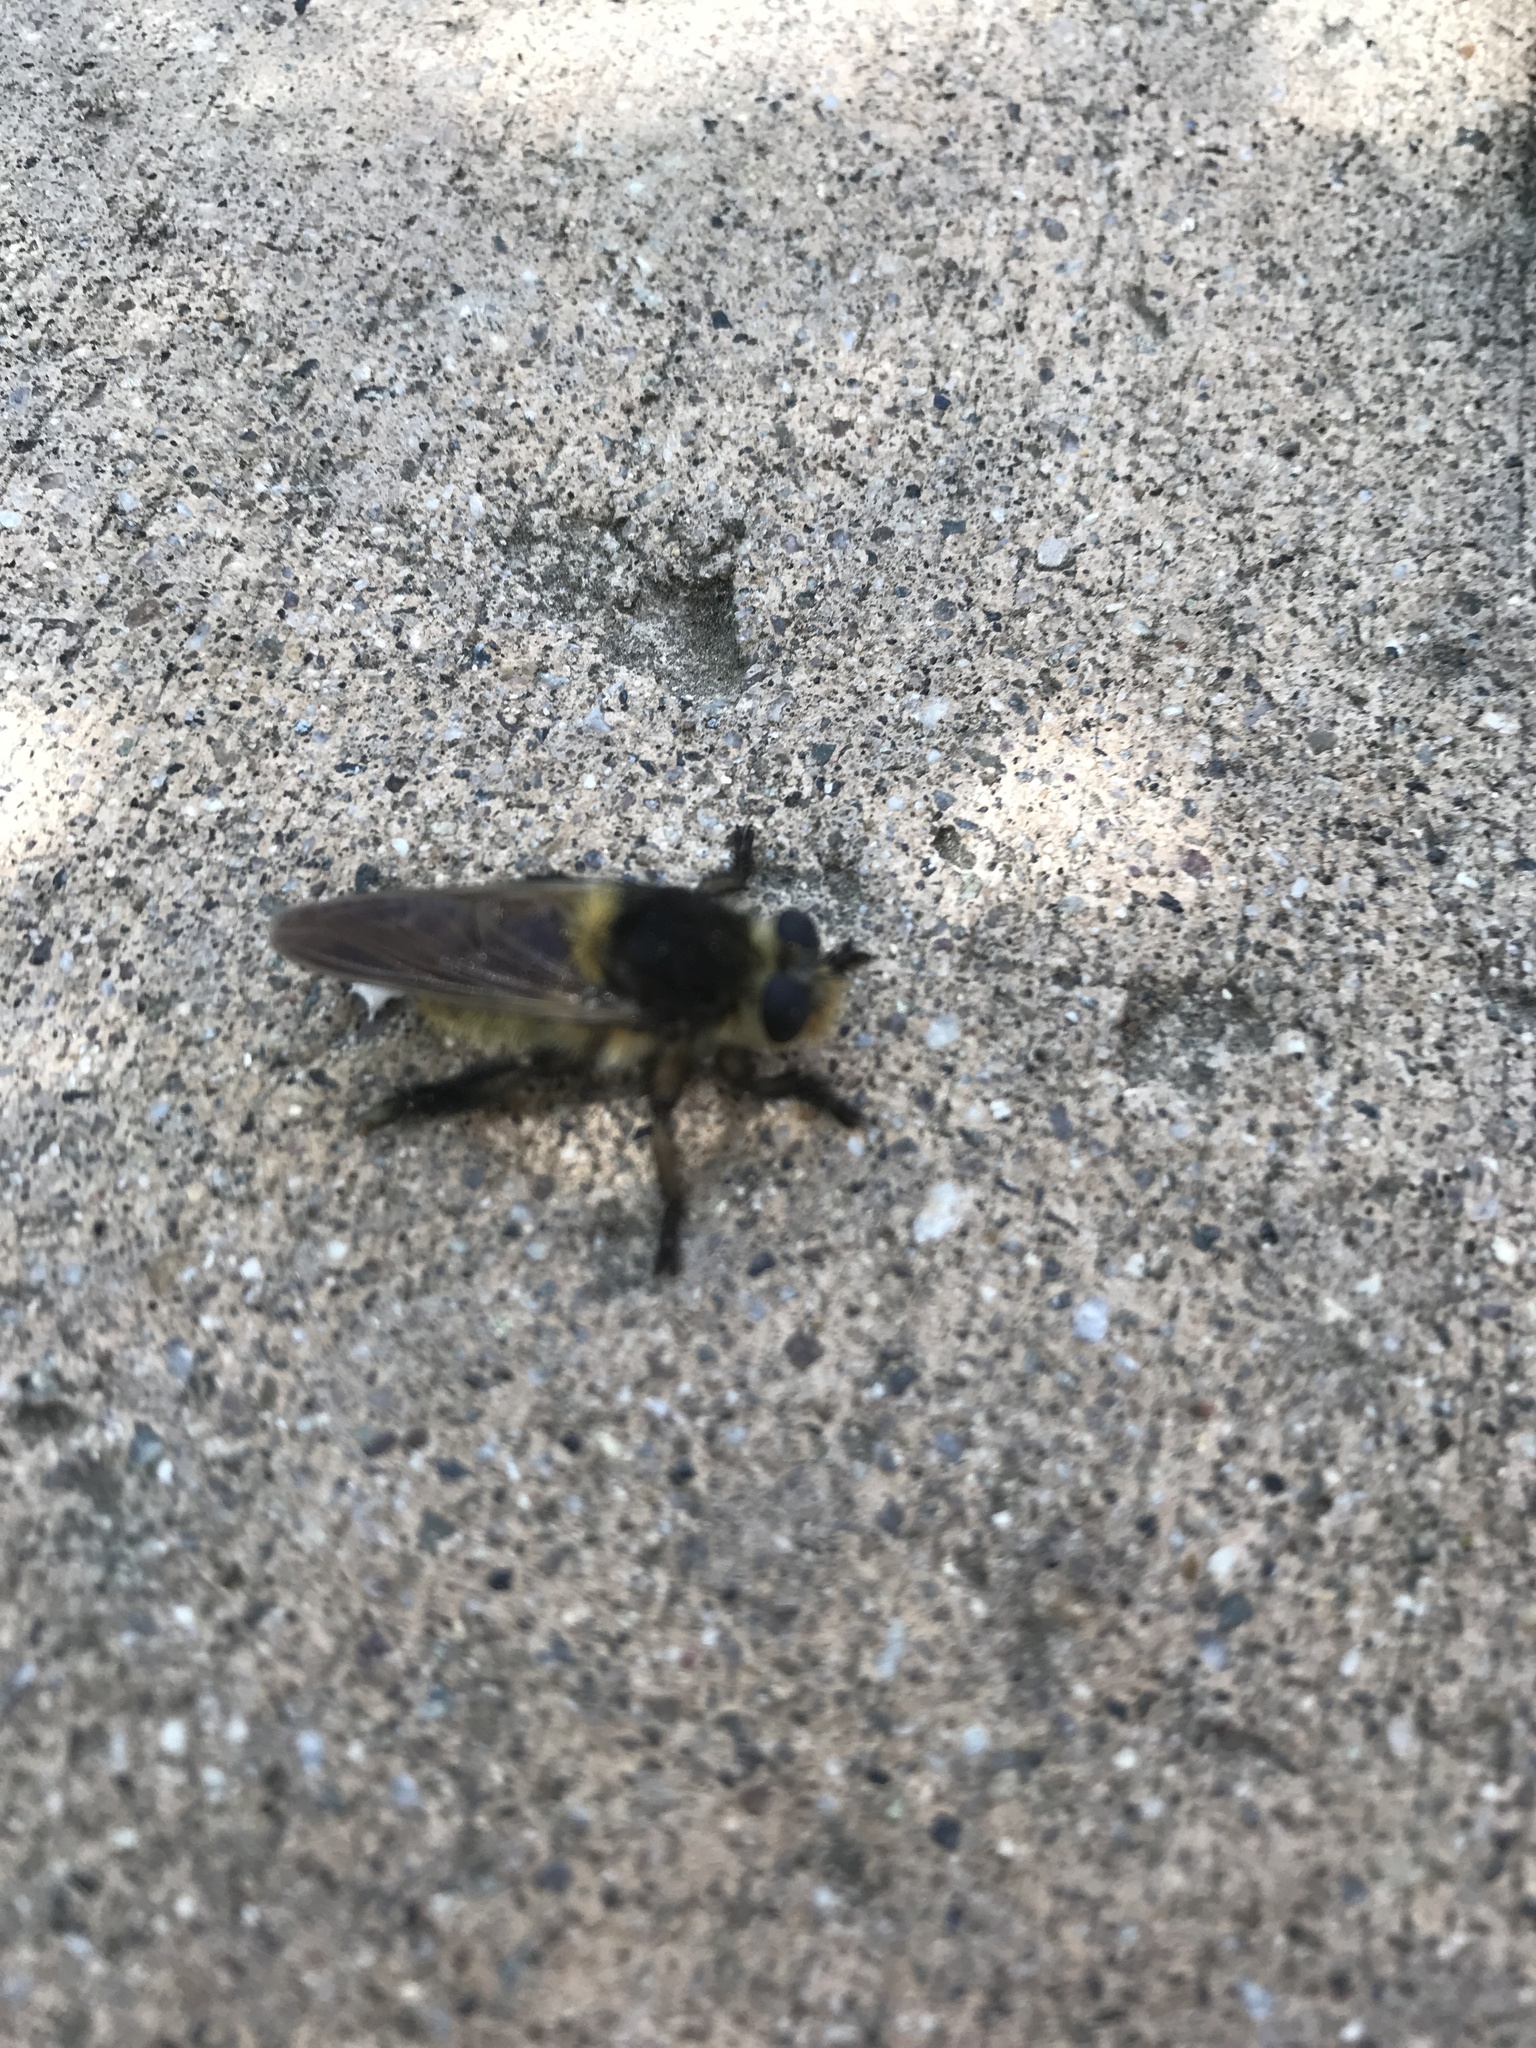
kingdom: Animalia
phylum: Arthropoda
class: Insecta
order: Diptera
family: Asilidae
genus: Mallophora
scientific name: Mallophora fautrix
